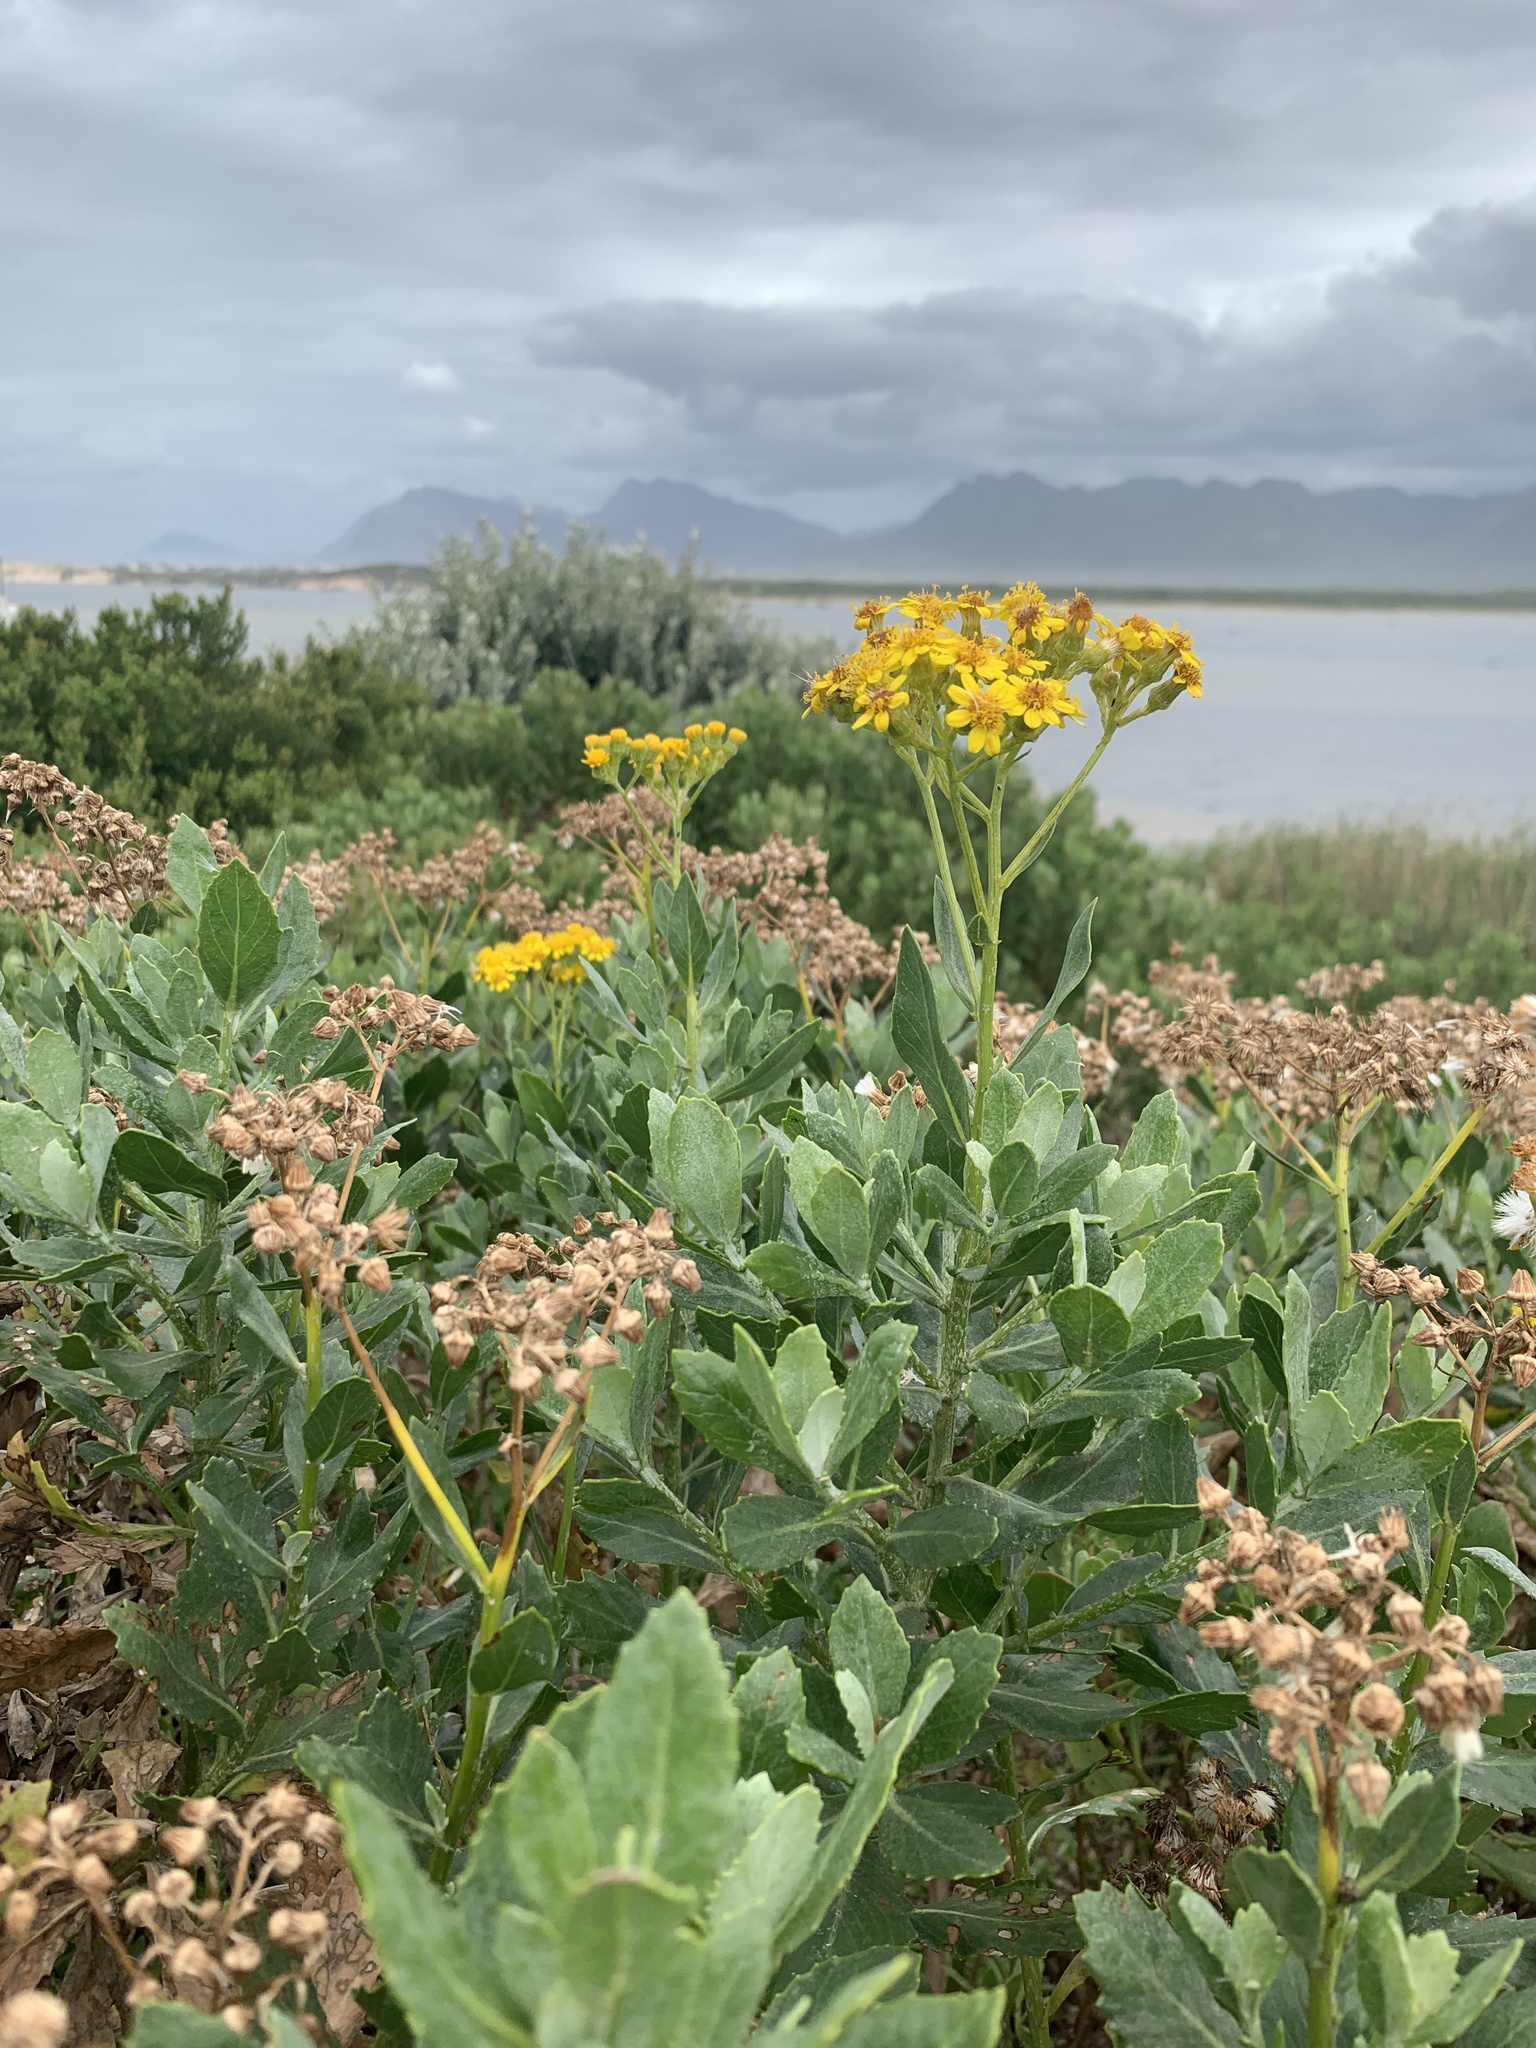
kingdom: Plantae
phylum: Tracheophyta
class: Magnoliopsida
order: Asterales
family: Asteraceae
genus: Senecio
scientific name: Senecio halimifolius
